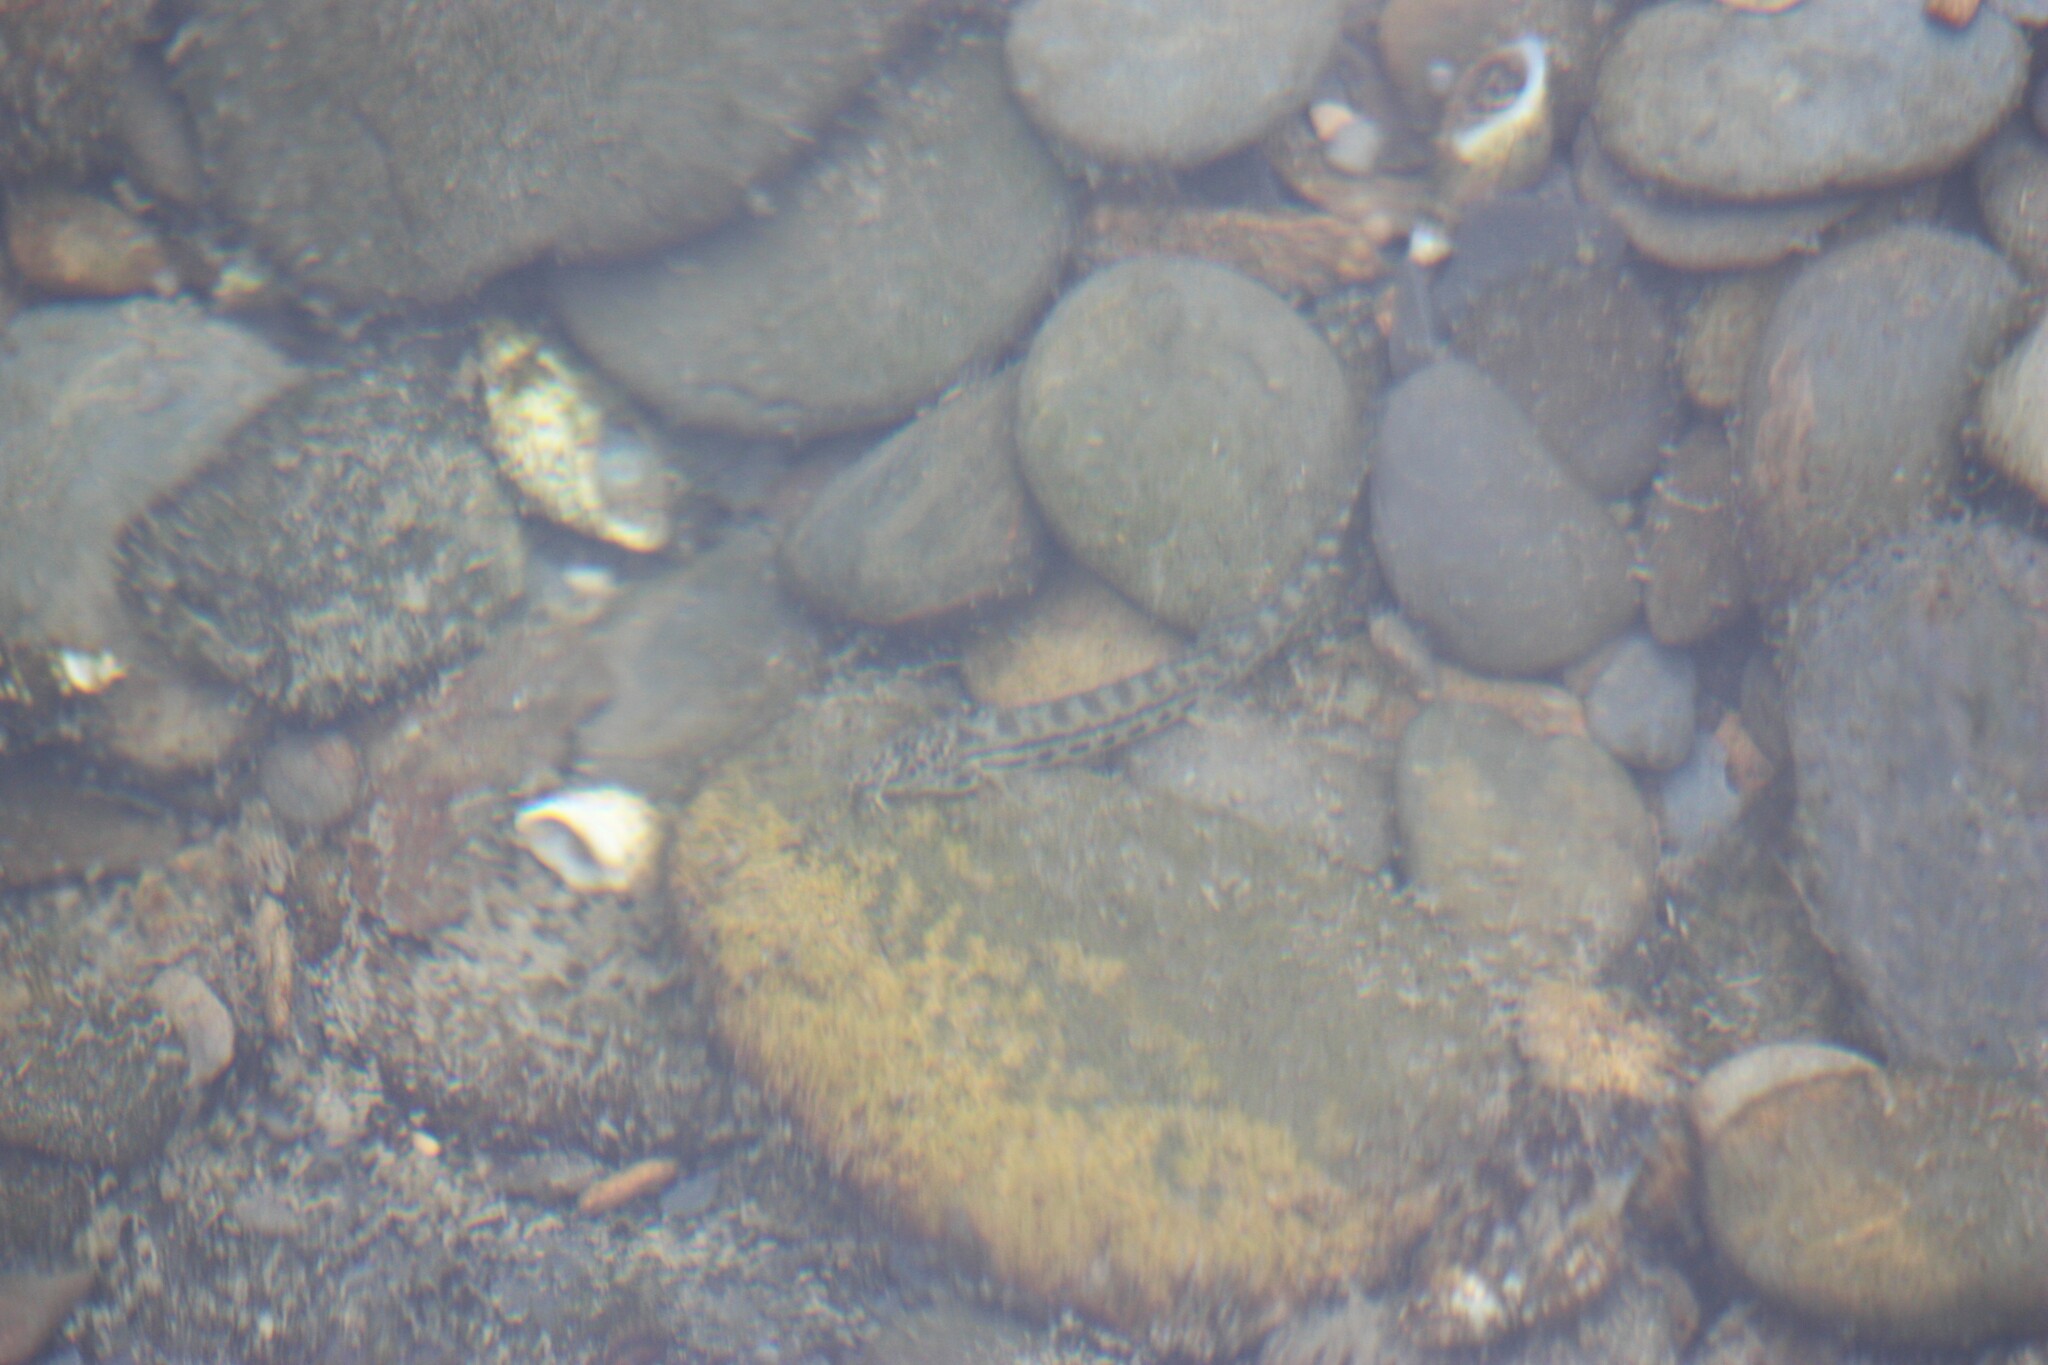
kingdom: Animalia
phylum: Chordata
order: Cypriniformes
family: Cobitidae
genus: Cobitis
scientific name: Cobitis sinensis
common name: Siberian spiny loach
